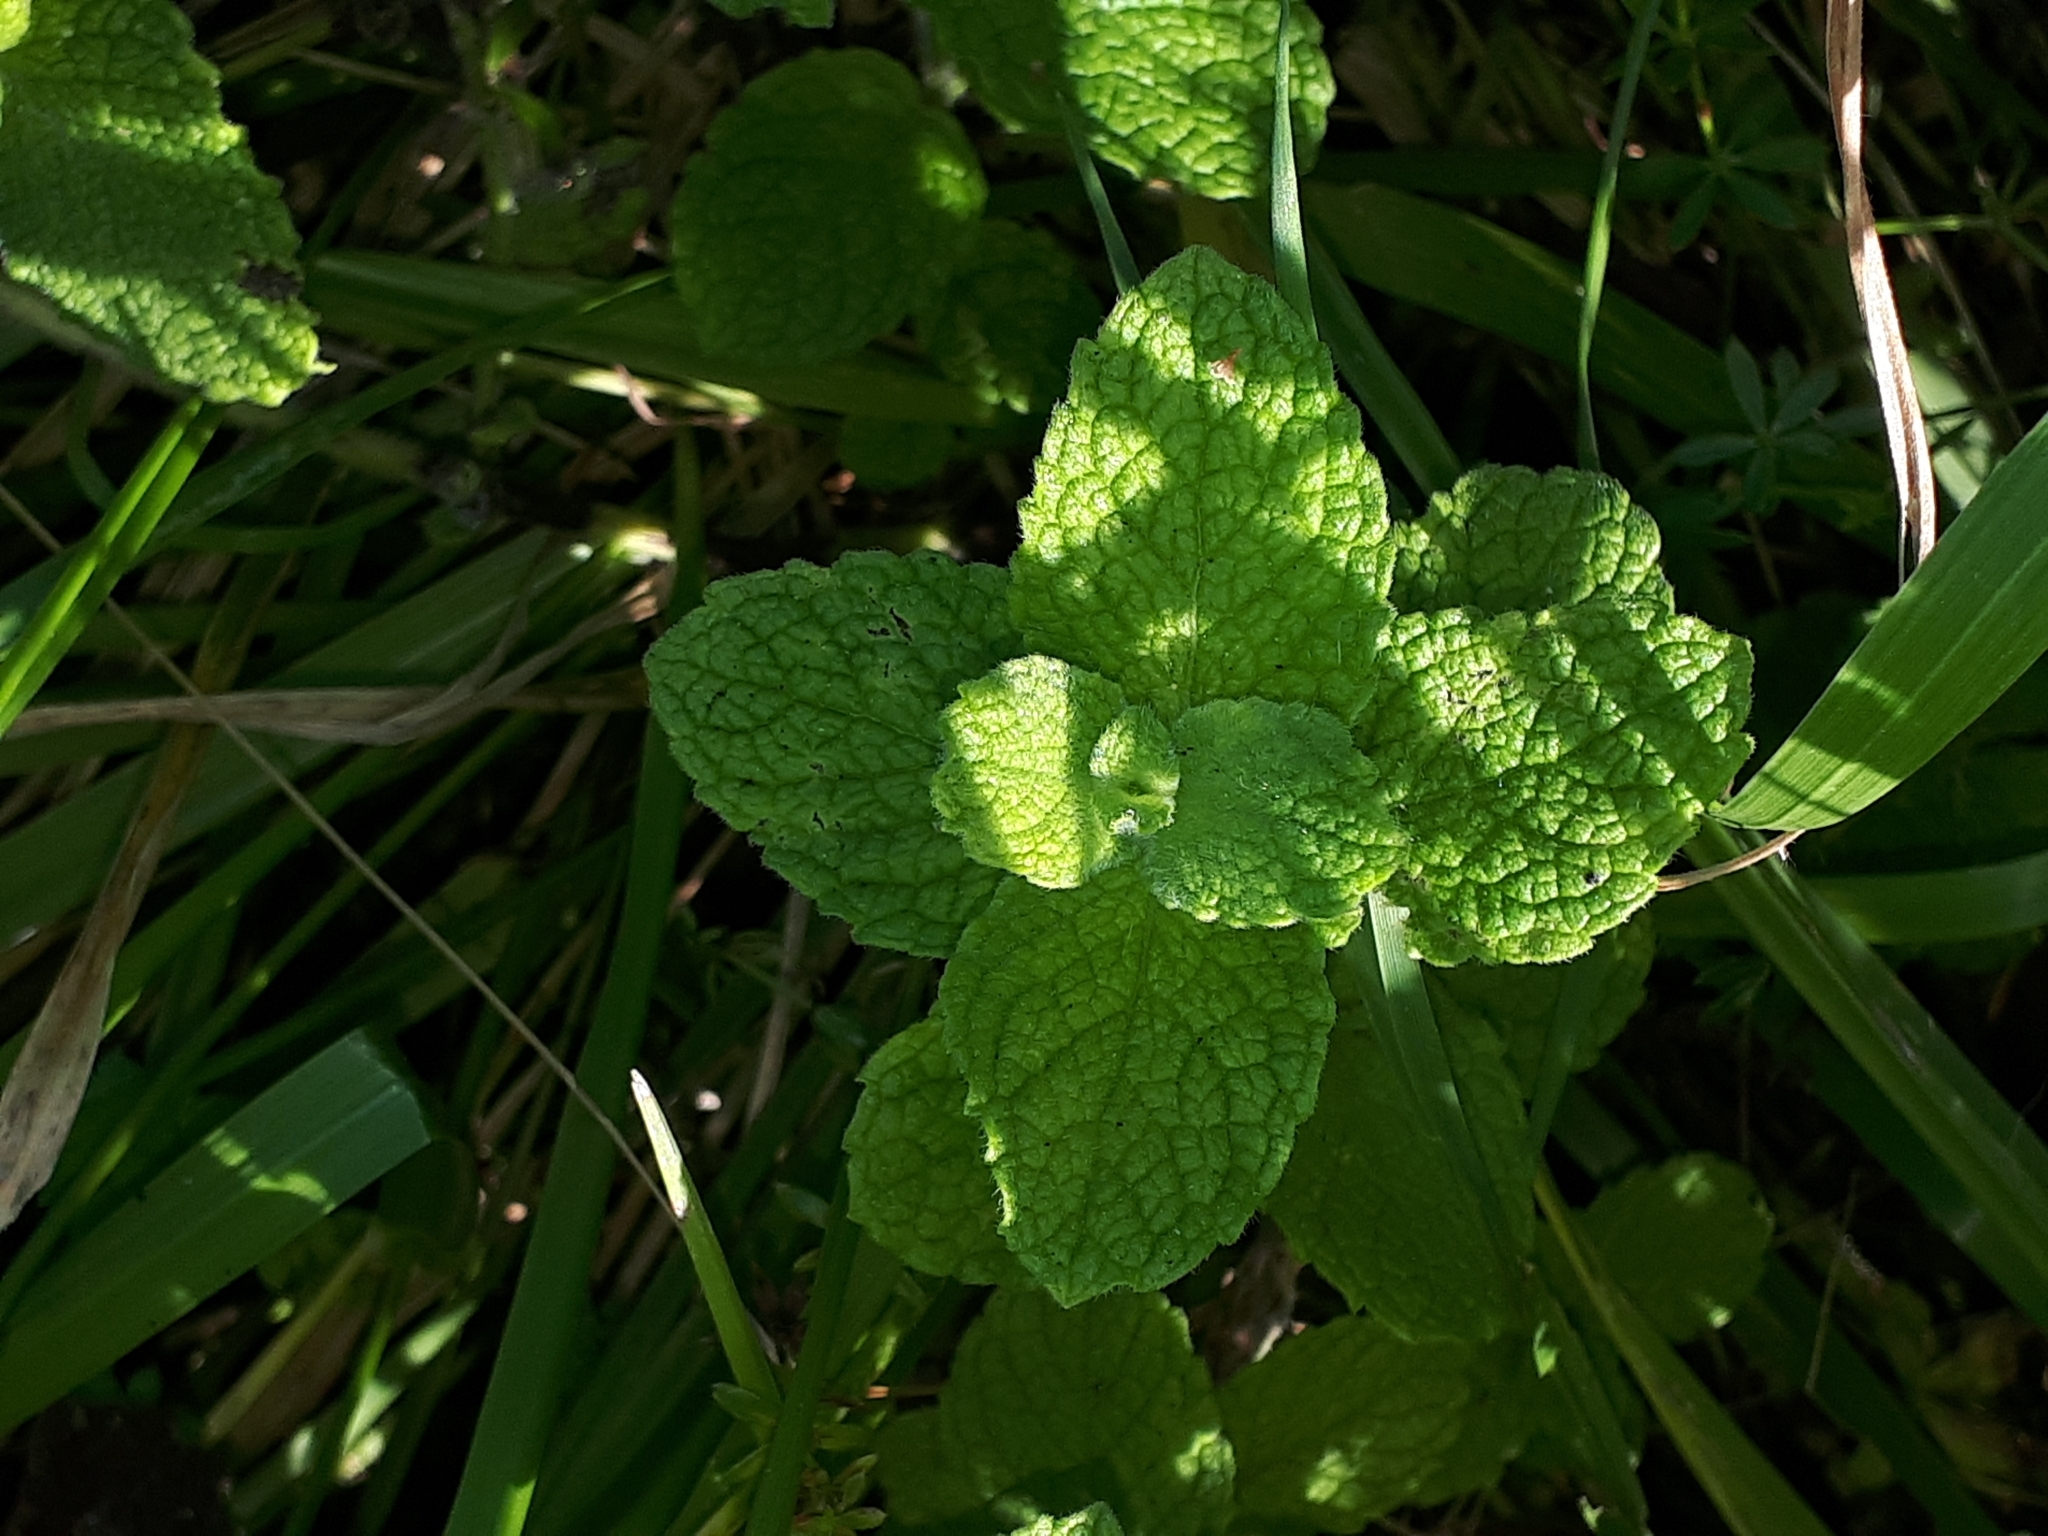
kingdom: Plantae
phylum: Tracheophyta
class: Magnoliopsida
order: Lamiales
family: Lamiaceae
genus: Mentha
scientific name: Mentha suaveolens
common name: Apple mint
